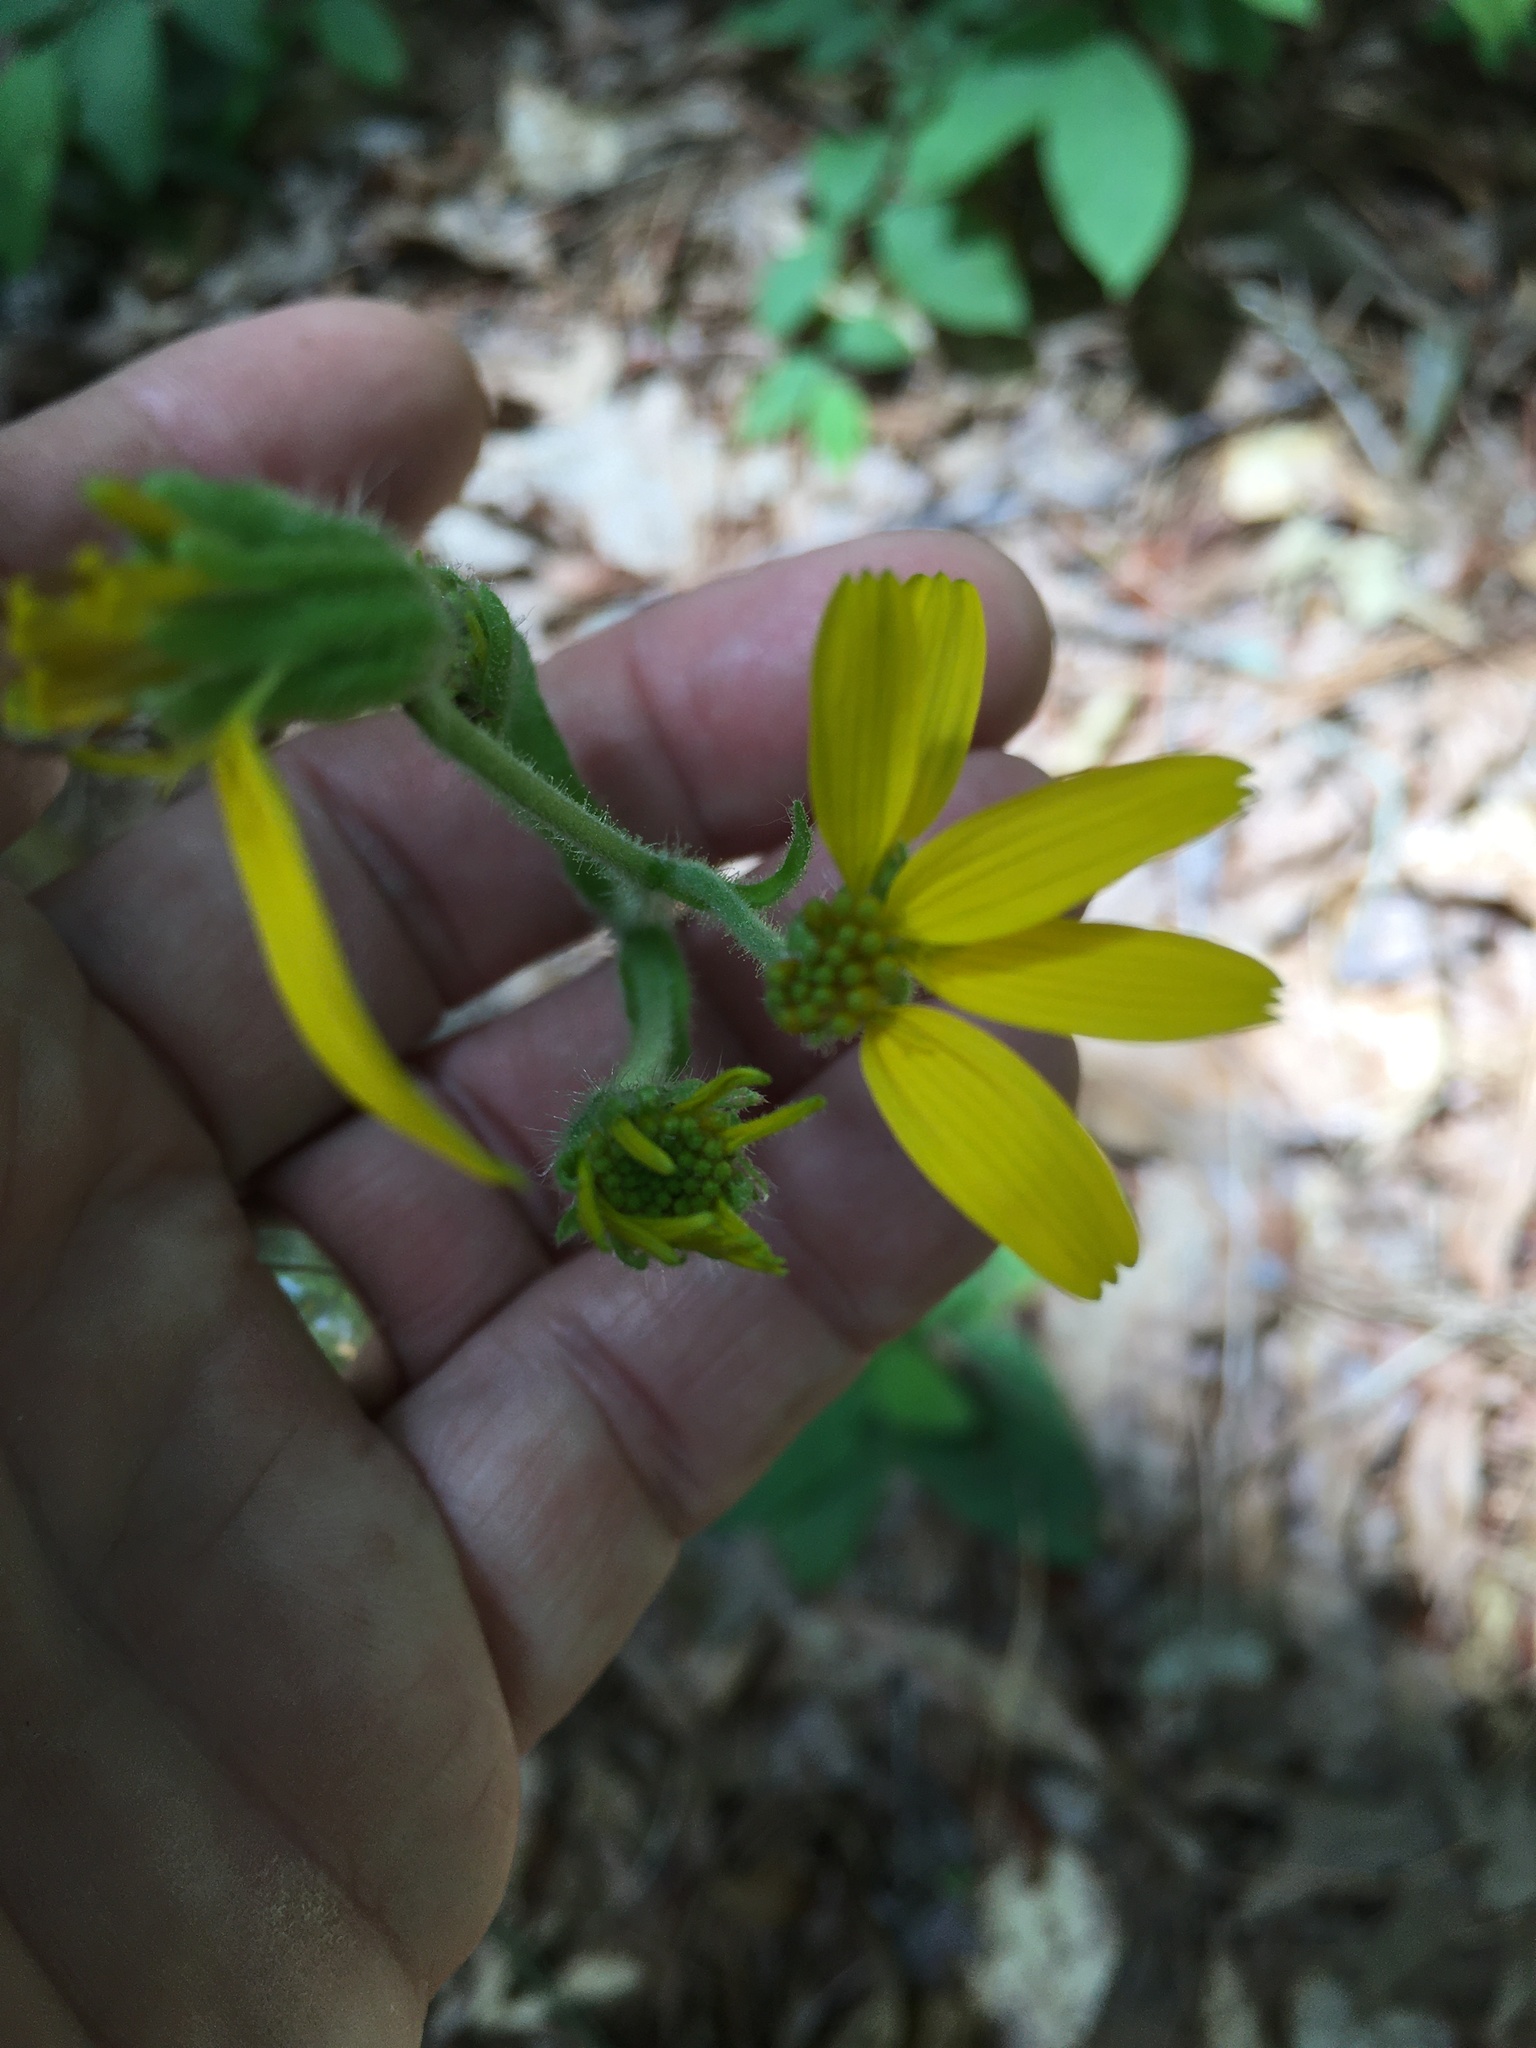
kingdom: Plantae
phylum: Tracheophyta
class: Magnoliopsida
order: Asterales
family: Asteraceae
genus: Arnica
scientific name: Arnica acaulis
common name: Common leopardbane
